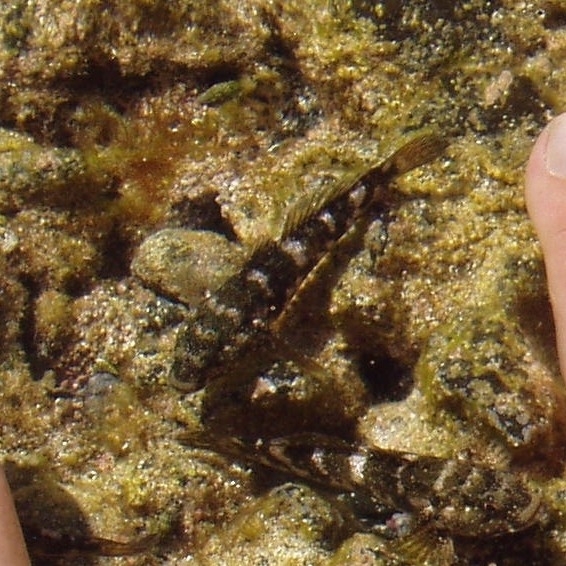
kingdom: Animalia
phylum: Chordata
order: Perciformes
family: Gobiidae
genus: Mauligobius
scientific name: Mauligobius maderensis
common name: Rock goby
